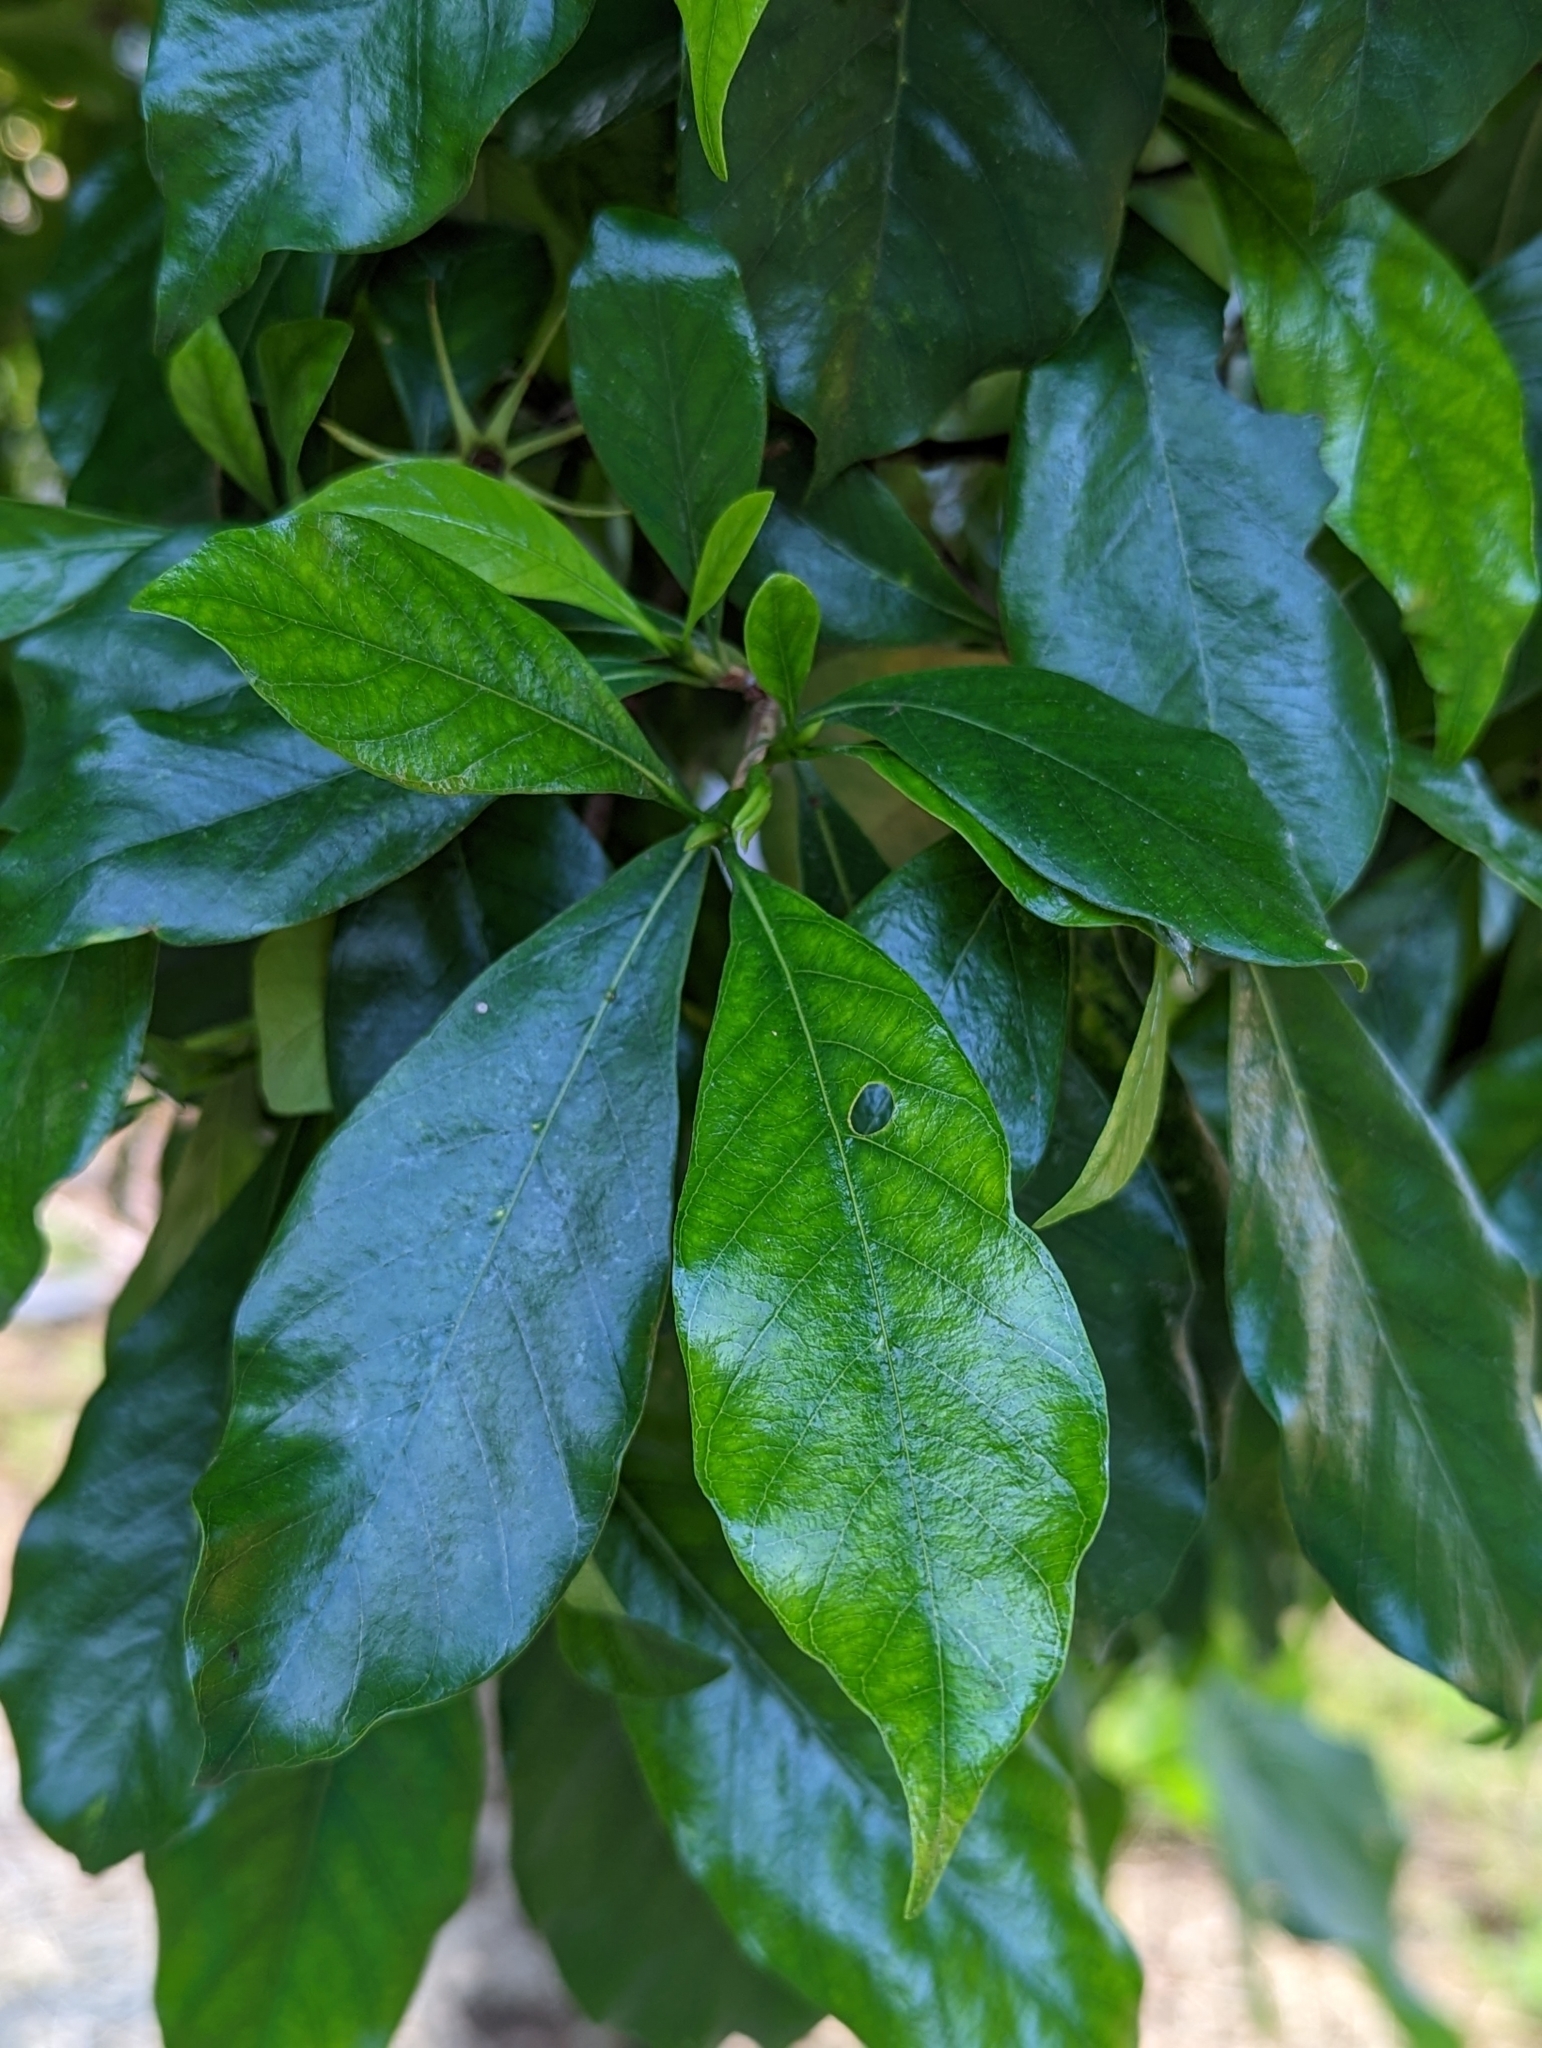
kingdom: Plantae
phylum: Tracheophyta
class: Magnoliopsida
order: Gentianales
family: Rubiaceae
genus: Gardenia
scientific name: Gardenia jasminoides
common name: Cape-jasmine
